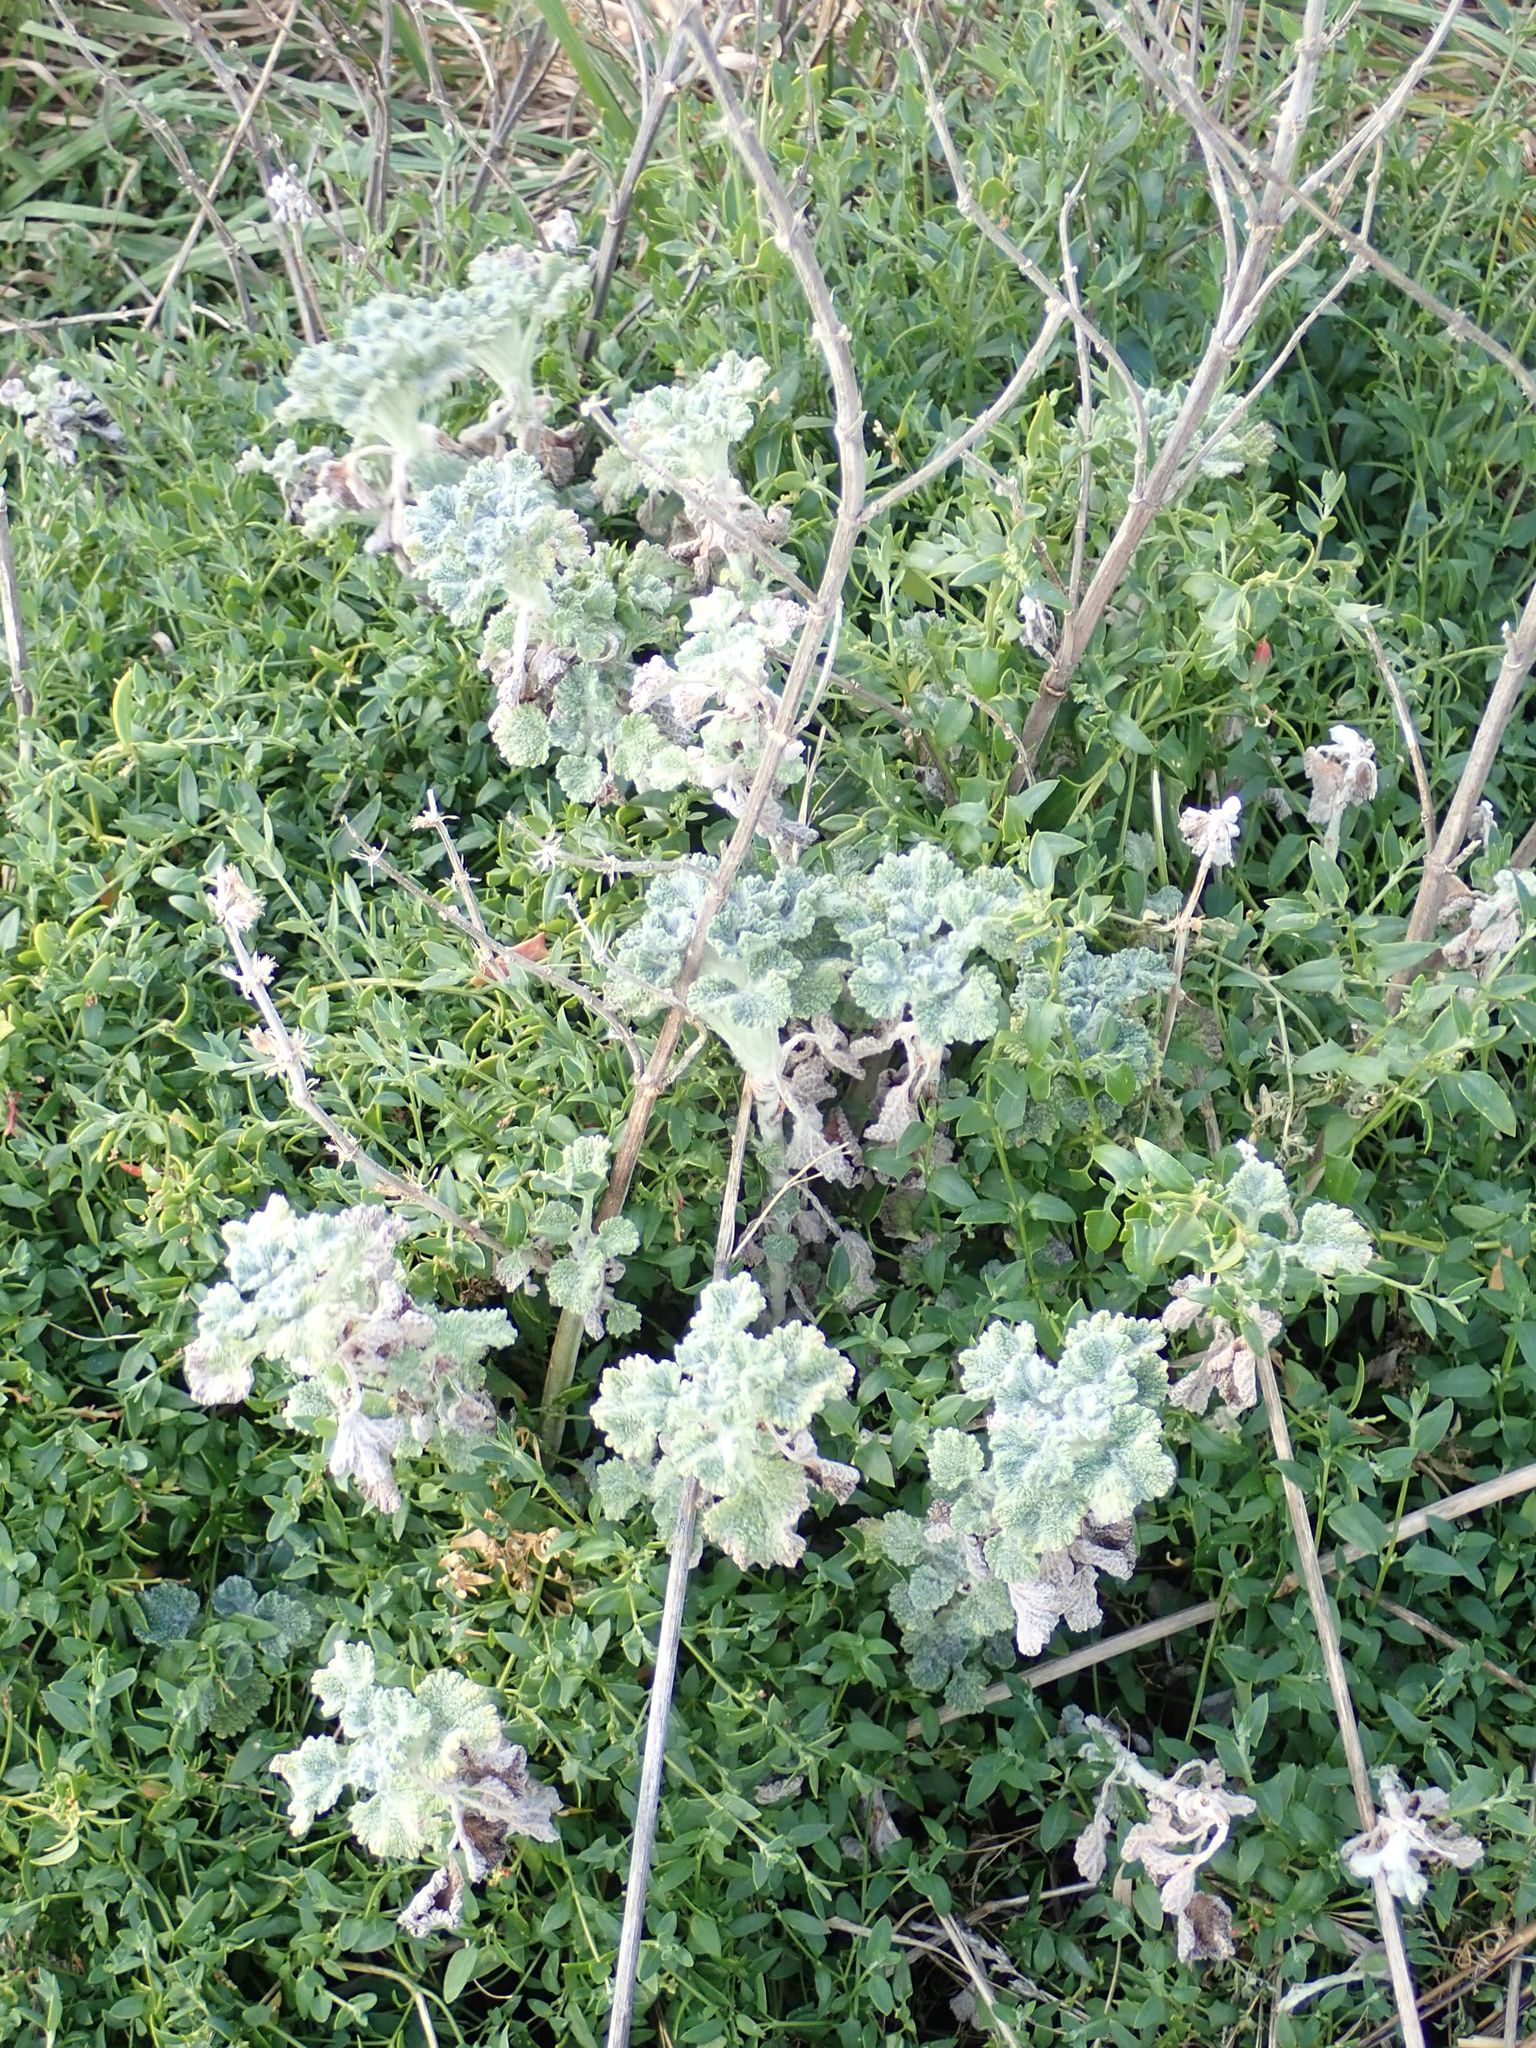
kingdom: Plantae
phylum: Tracheophyta
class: Magnoliopsida
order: Lamiales
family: Lamiaceae
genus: Marrubium
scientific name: Marrubium vulgare
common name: Horehound
